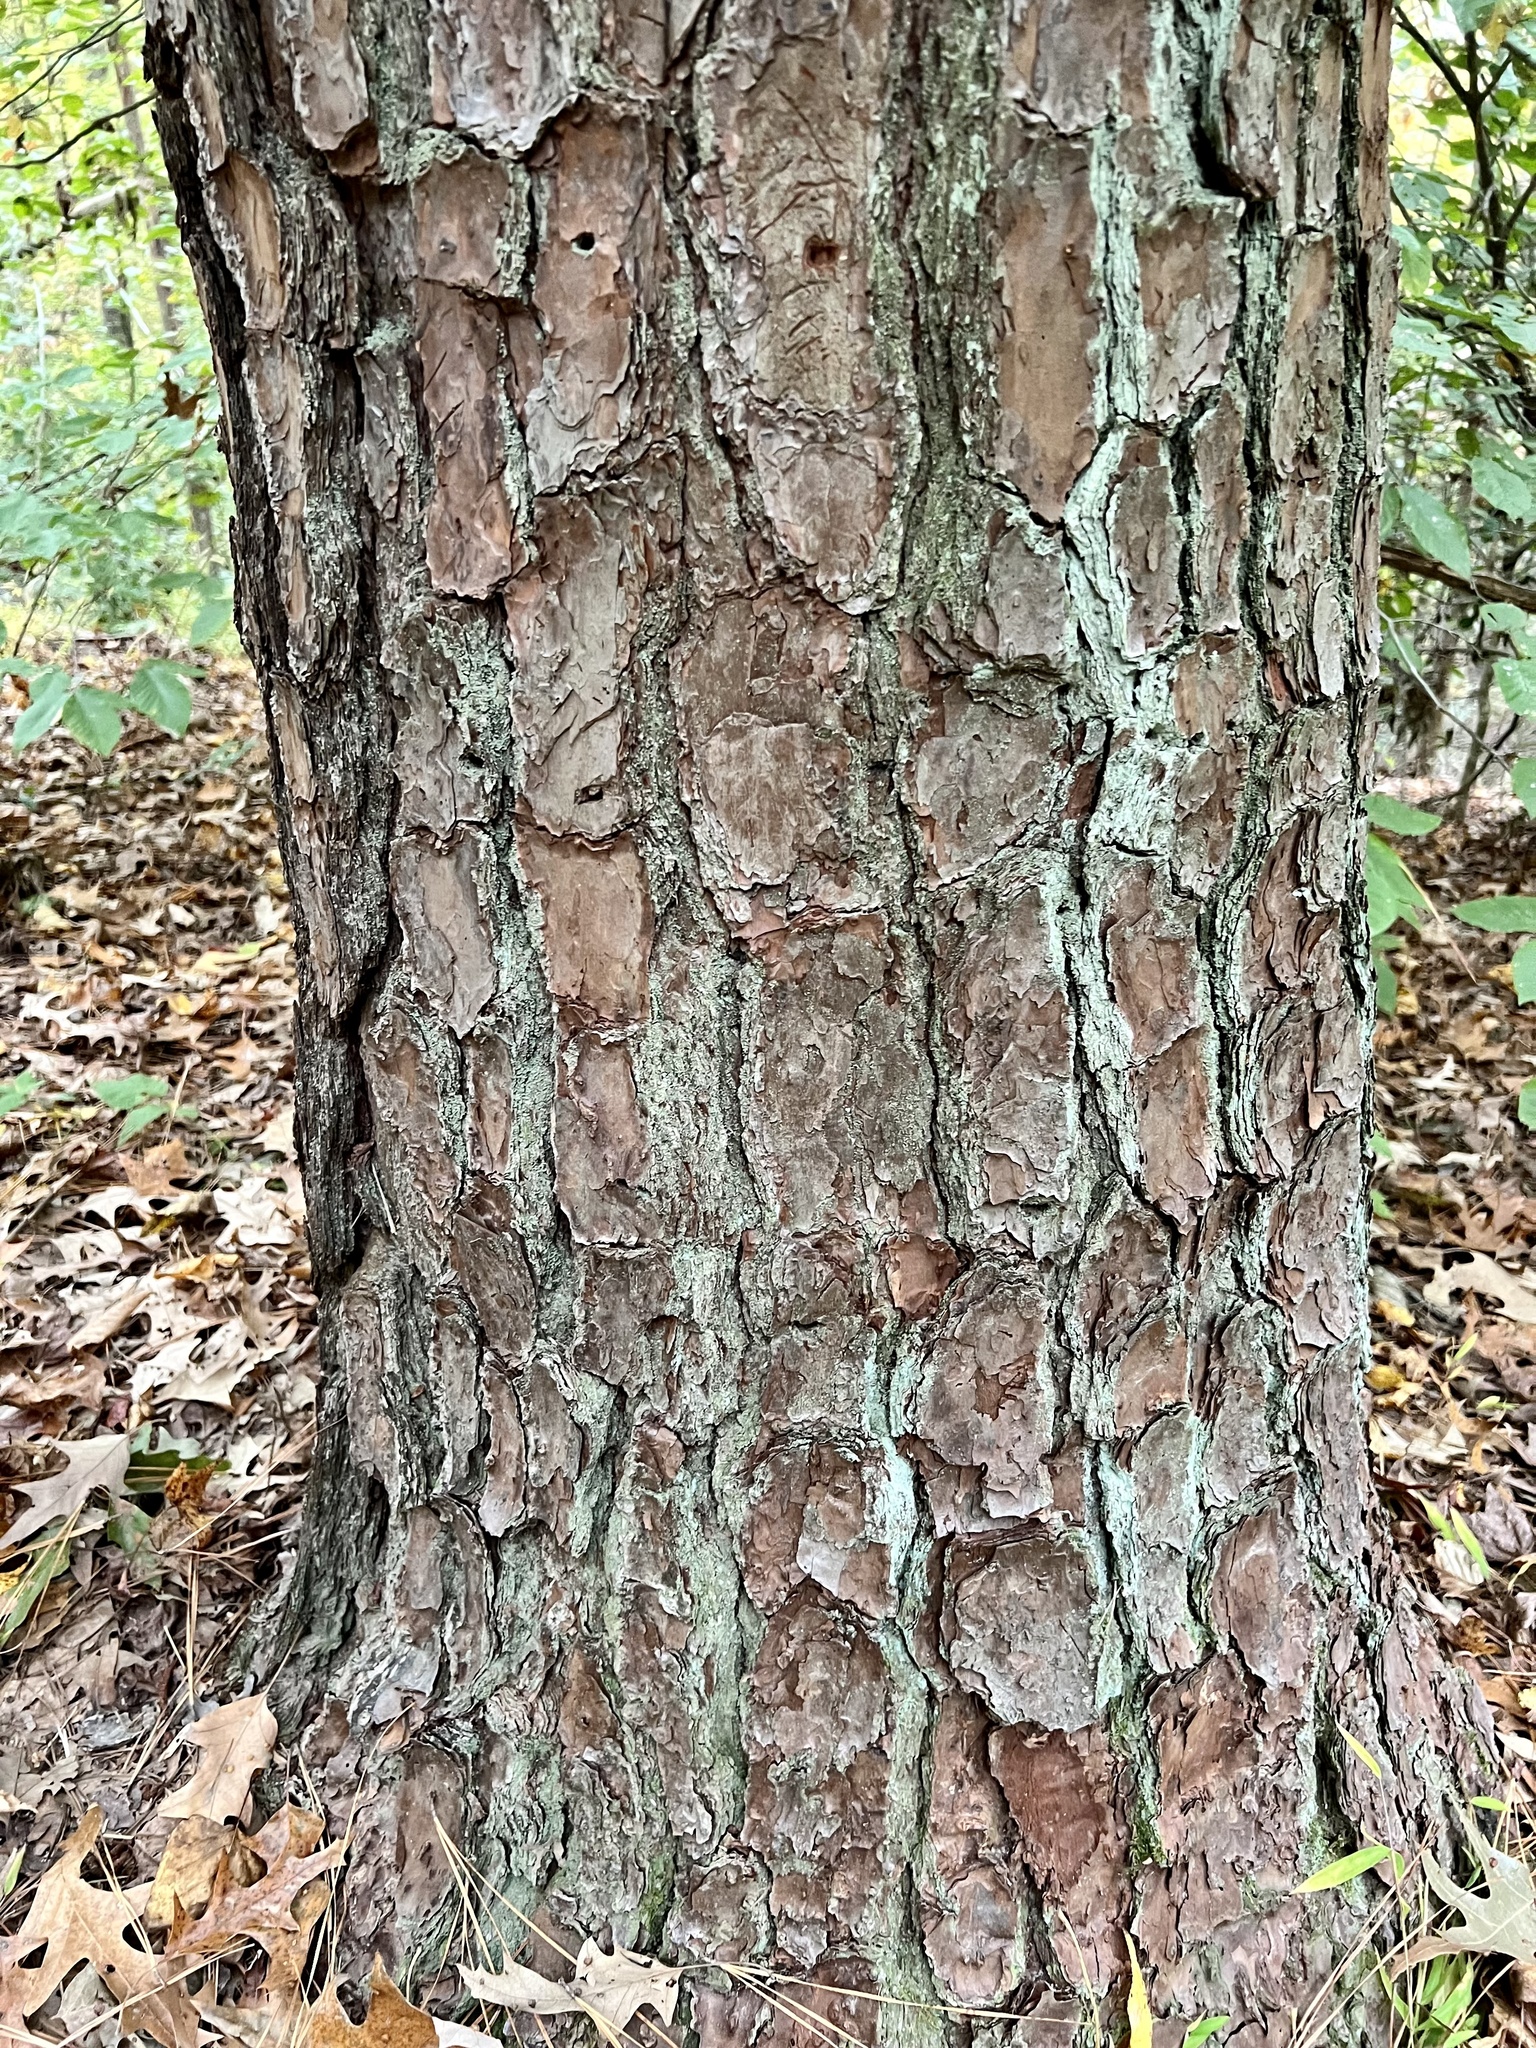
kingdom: Plantae
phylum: Tracheophyta
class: Pinopsida
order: Pinales
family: Pinaceae
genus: Pinus
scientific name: Pinus taeda
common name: Loblolly pine
